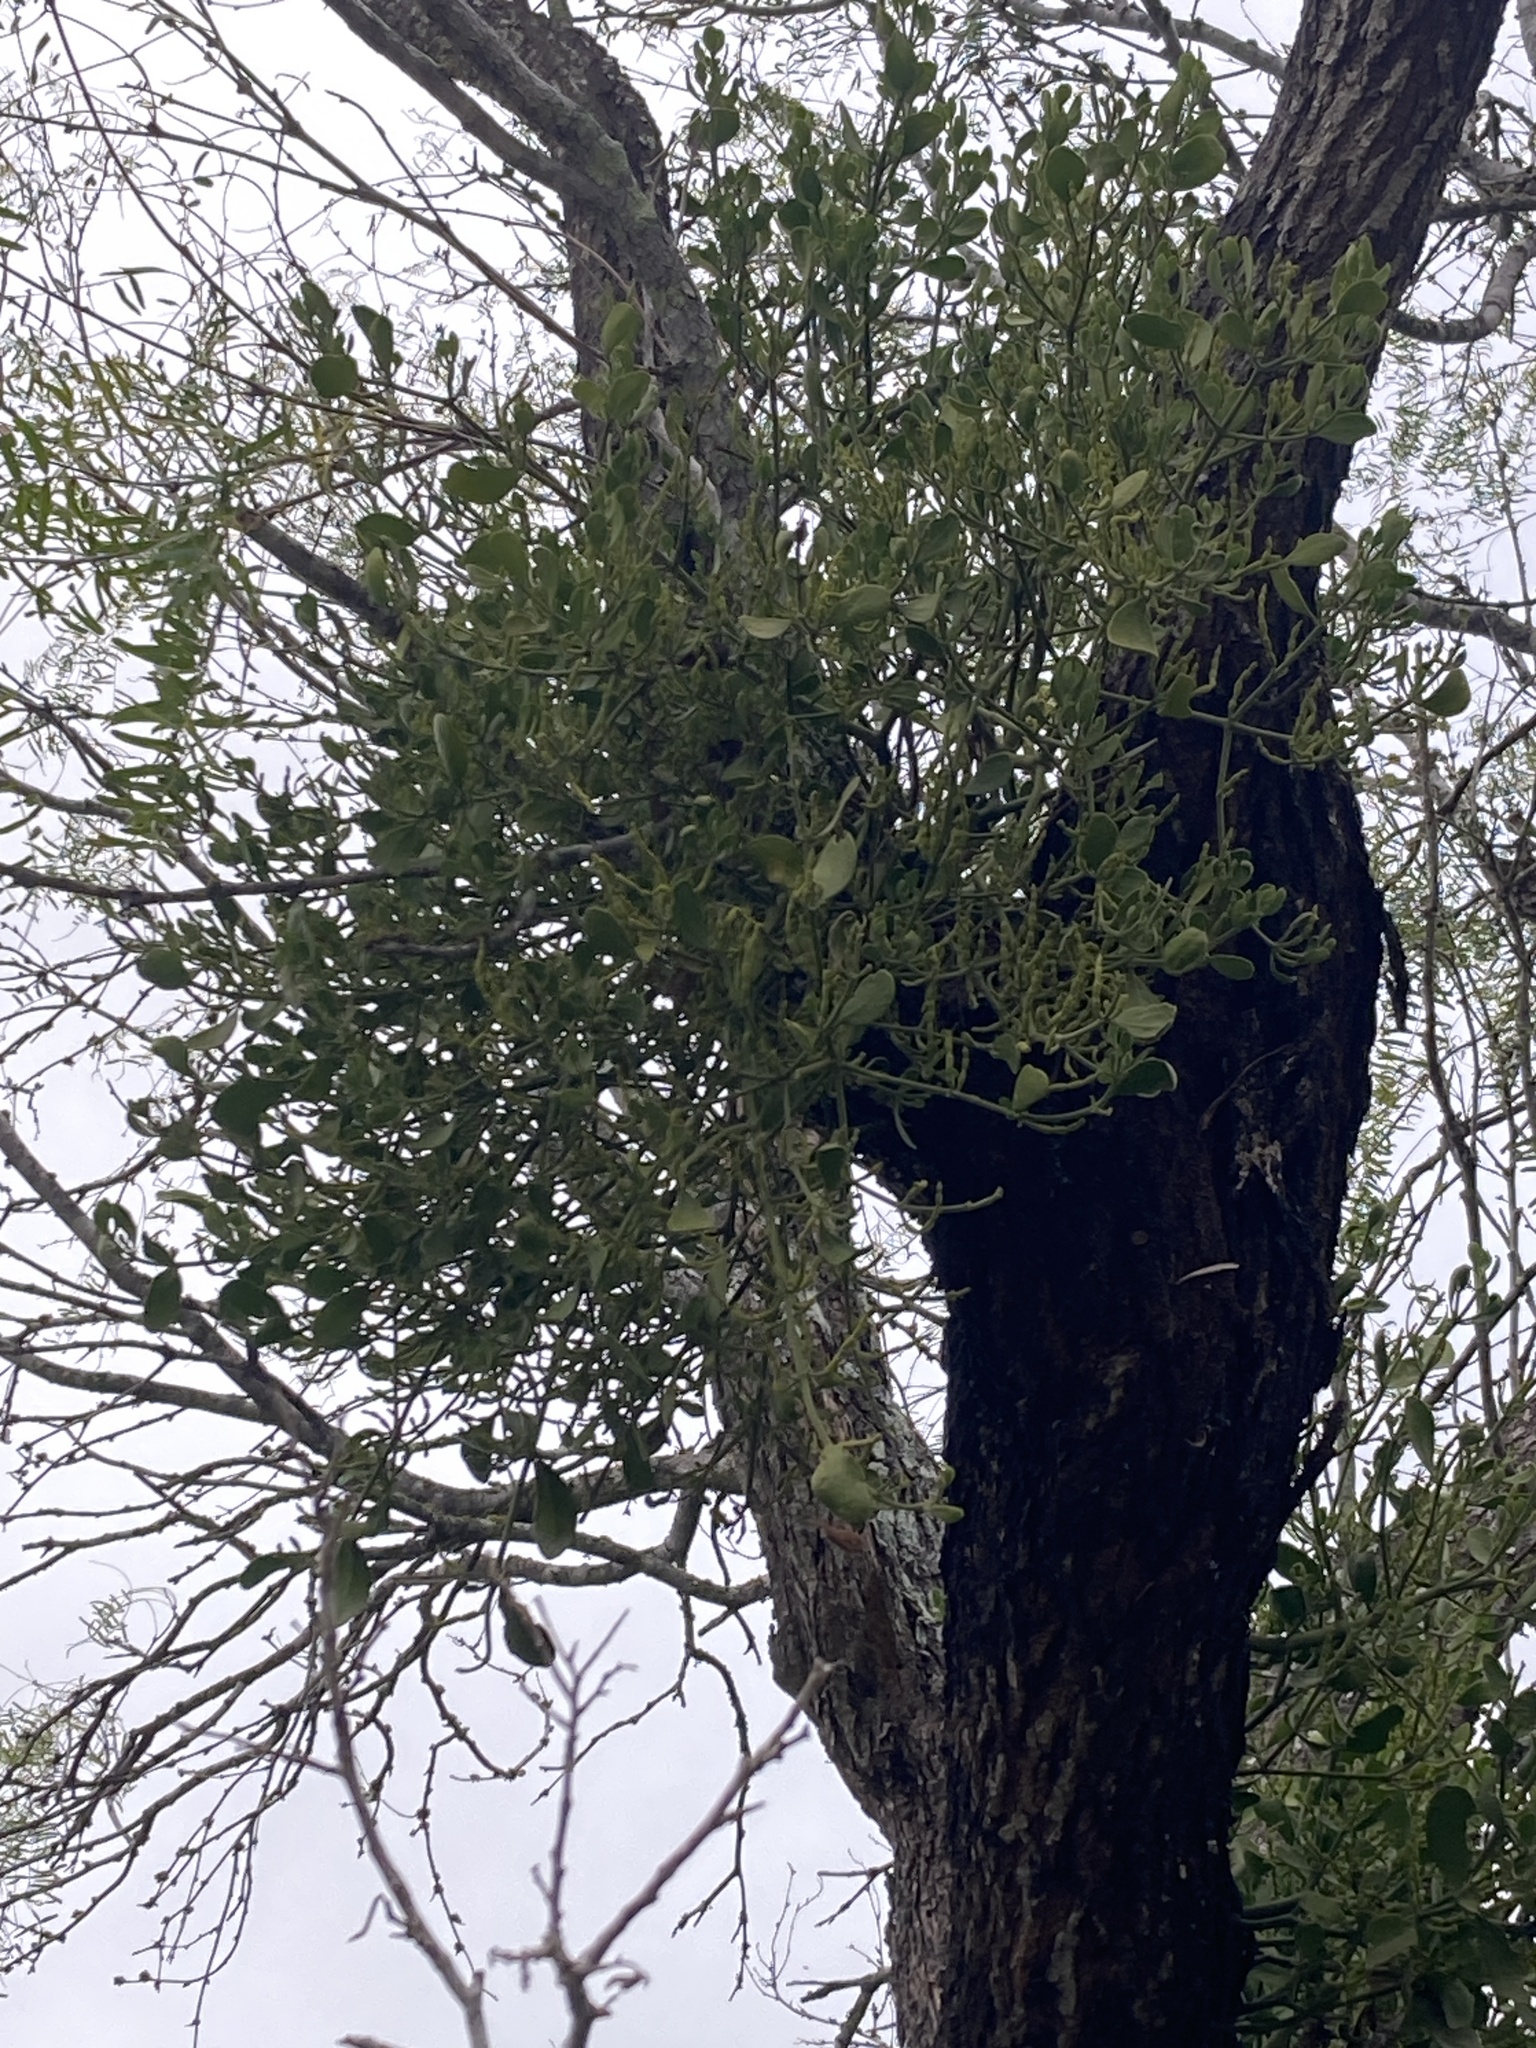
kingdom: Plantae
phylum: Tracheophyta
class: Magnoliopsida
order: Santalales
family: Viscaceae
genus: Phoradendron
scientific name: Phoradendron leucarpum
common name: Pacific mistletoe
